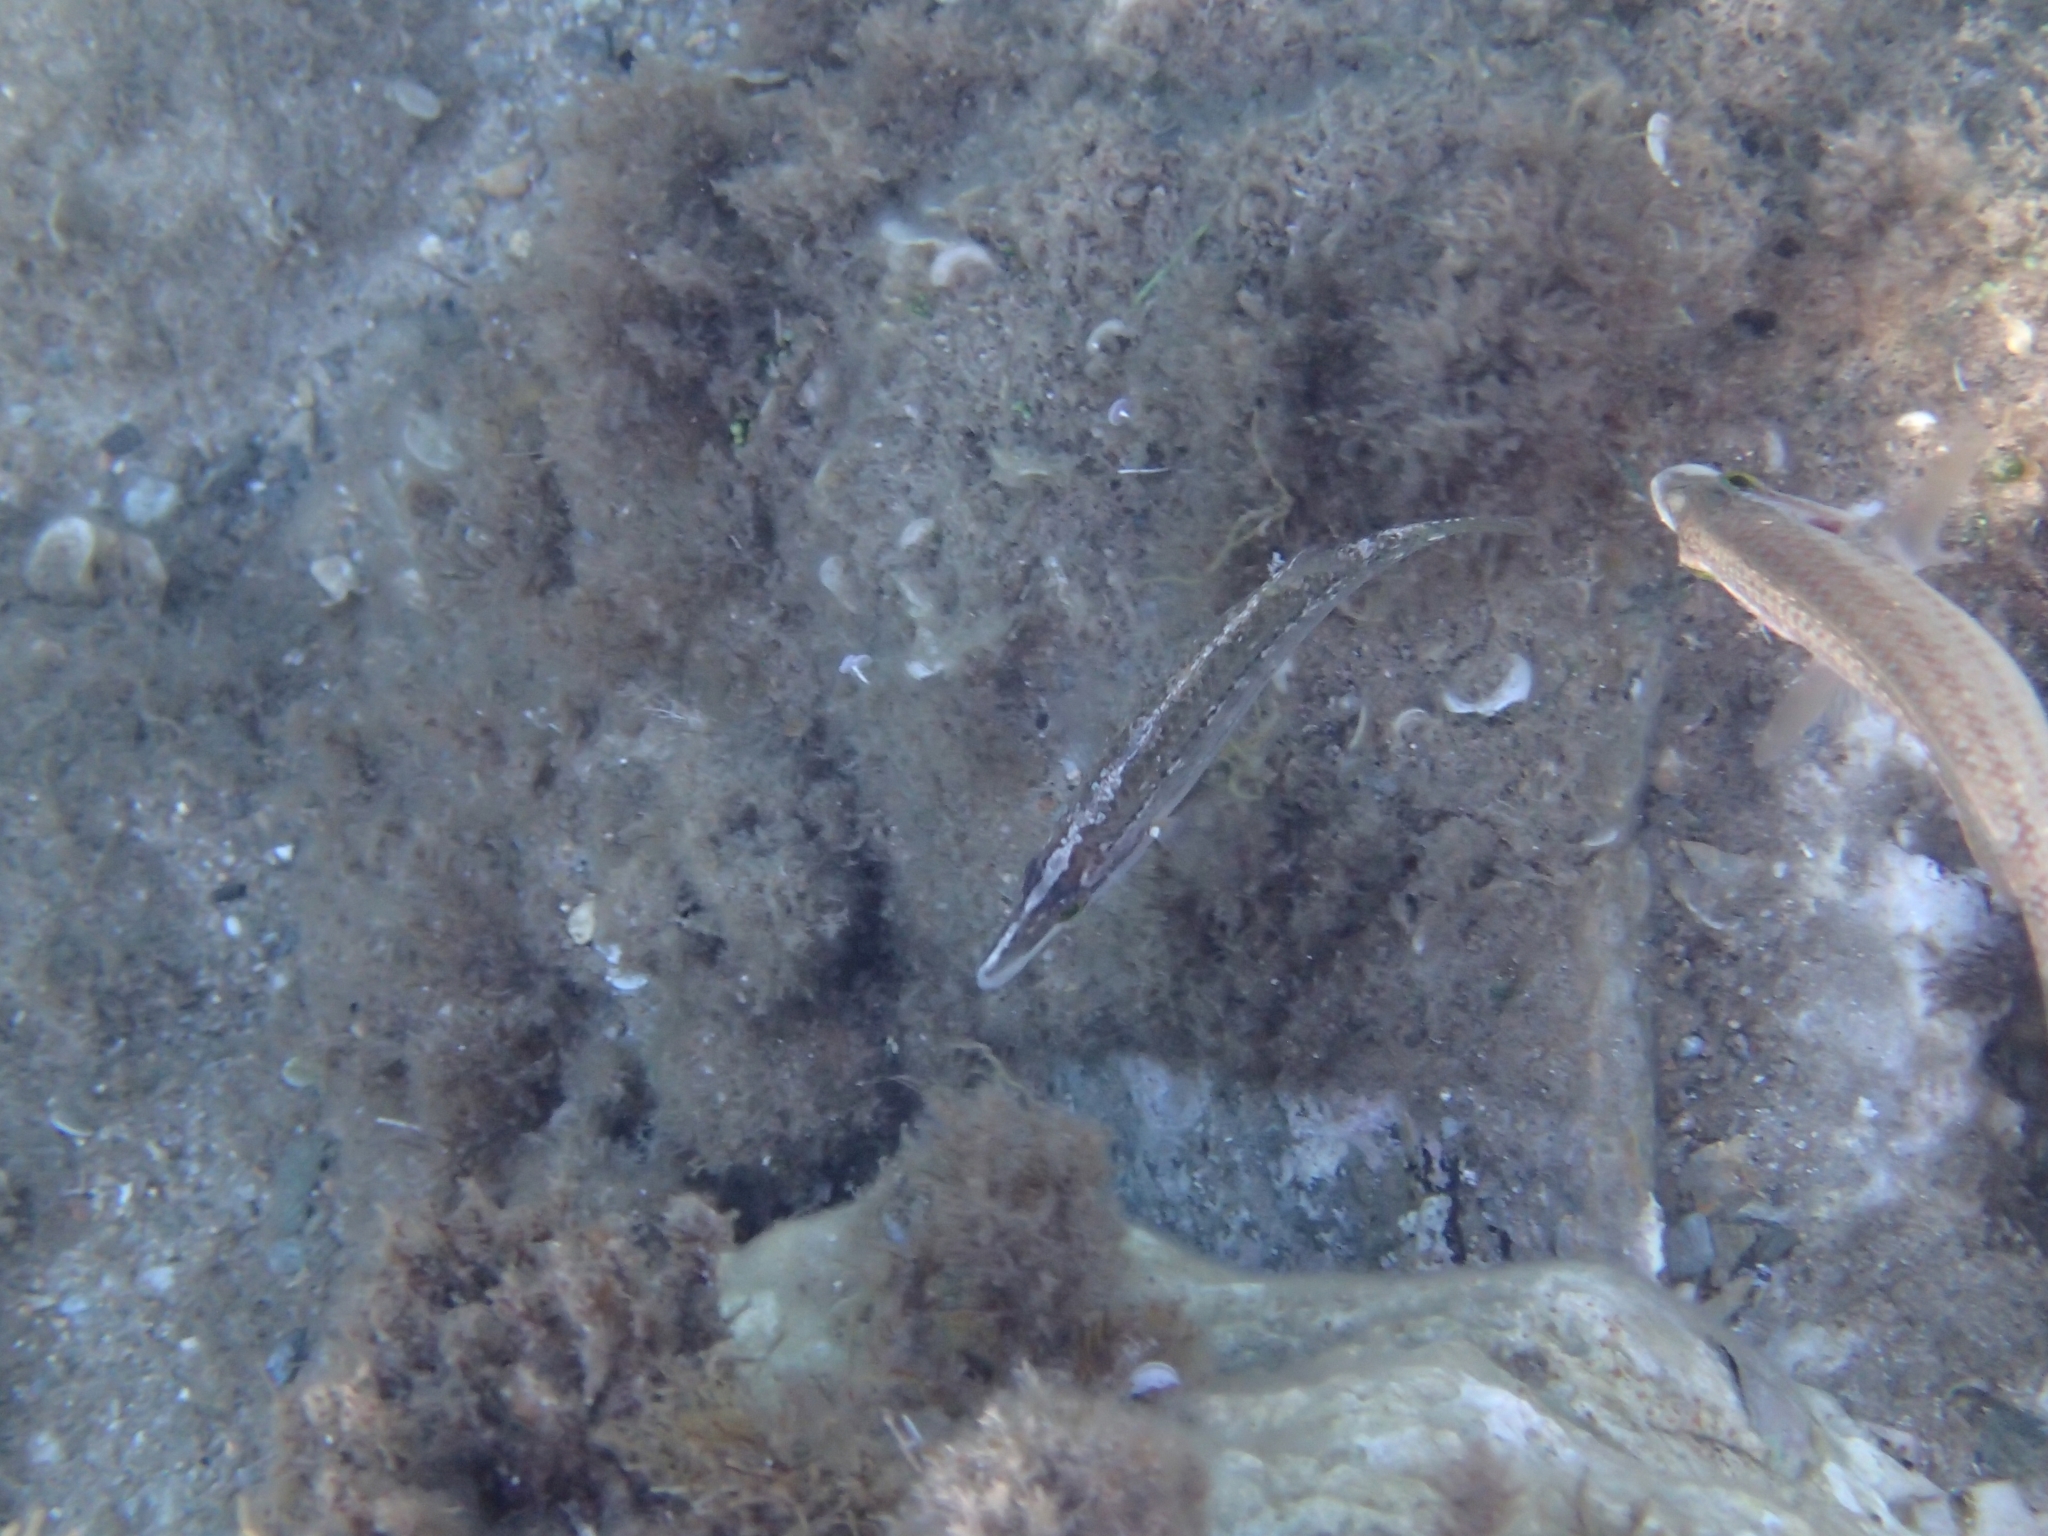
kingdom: Animalia
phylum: Chordata
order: Perciformes
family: Labridae
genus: Symphodus
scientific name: Symphodus rostratus
